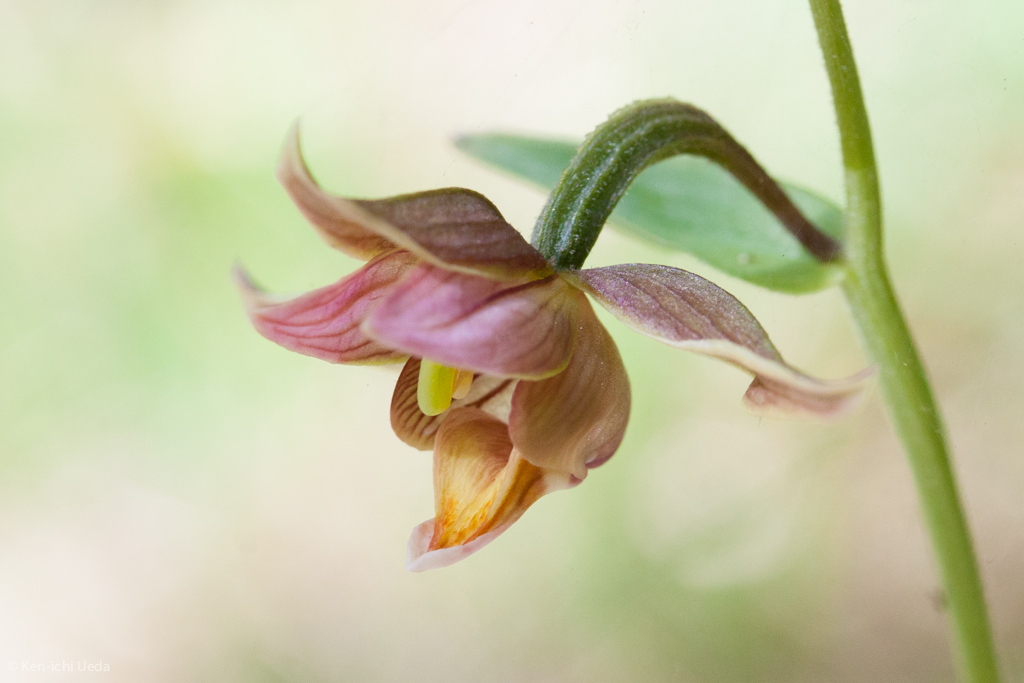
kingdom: Plantae
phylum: Tracheophyta
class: Liliopsida
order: Asparagales
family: Orchidaceae
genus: Epipactis
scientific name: Epipactis gigantea
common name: Chatterbox
